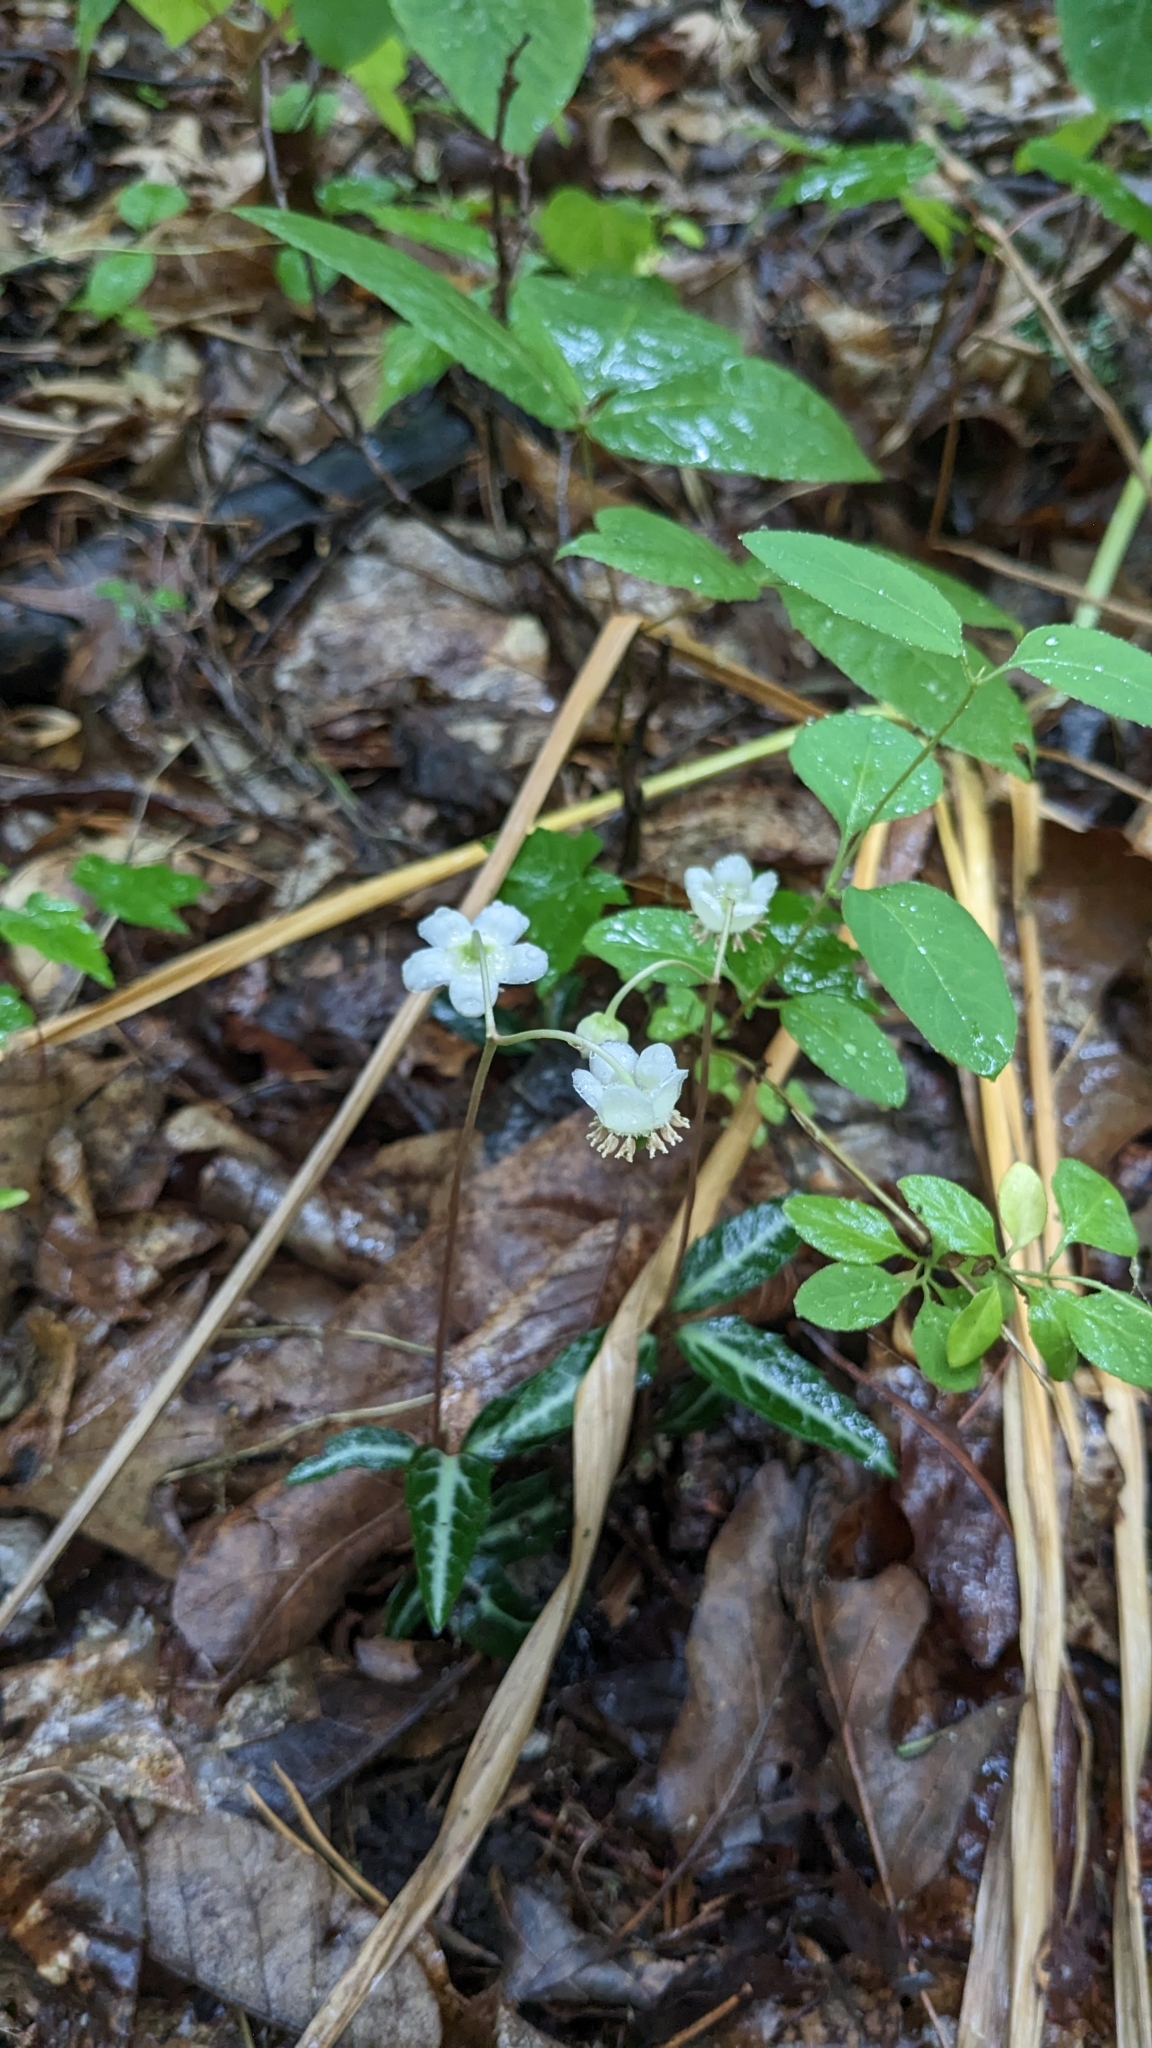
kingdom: Plantae
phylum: Tracheophyta
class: Magnoliopsida
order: Ericales
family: Ericaceae
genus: Chimaphila
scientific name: Chimaphila maculata
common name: Spotted pipsissewa
